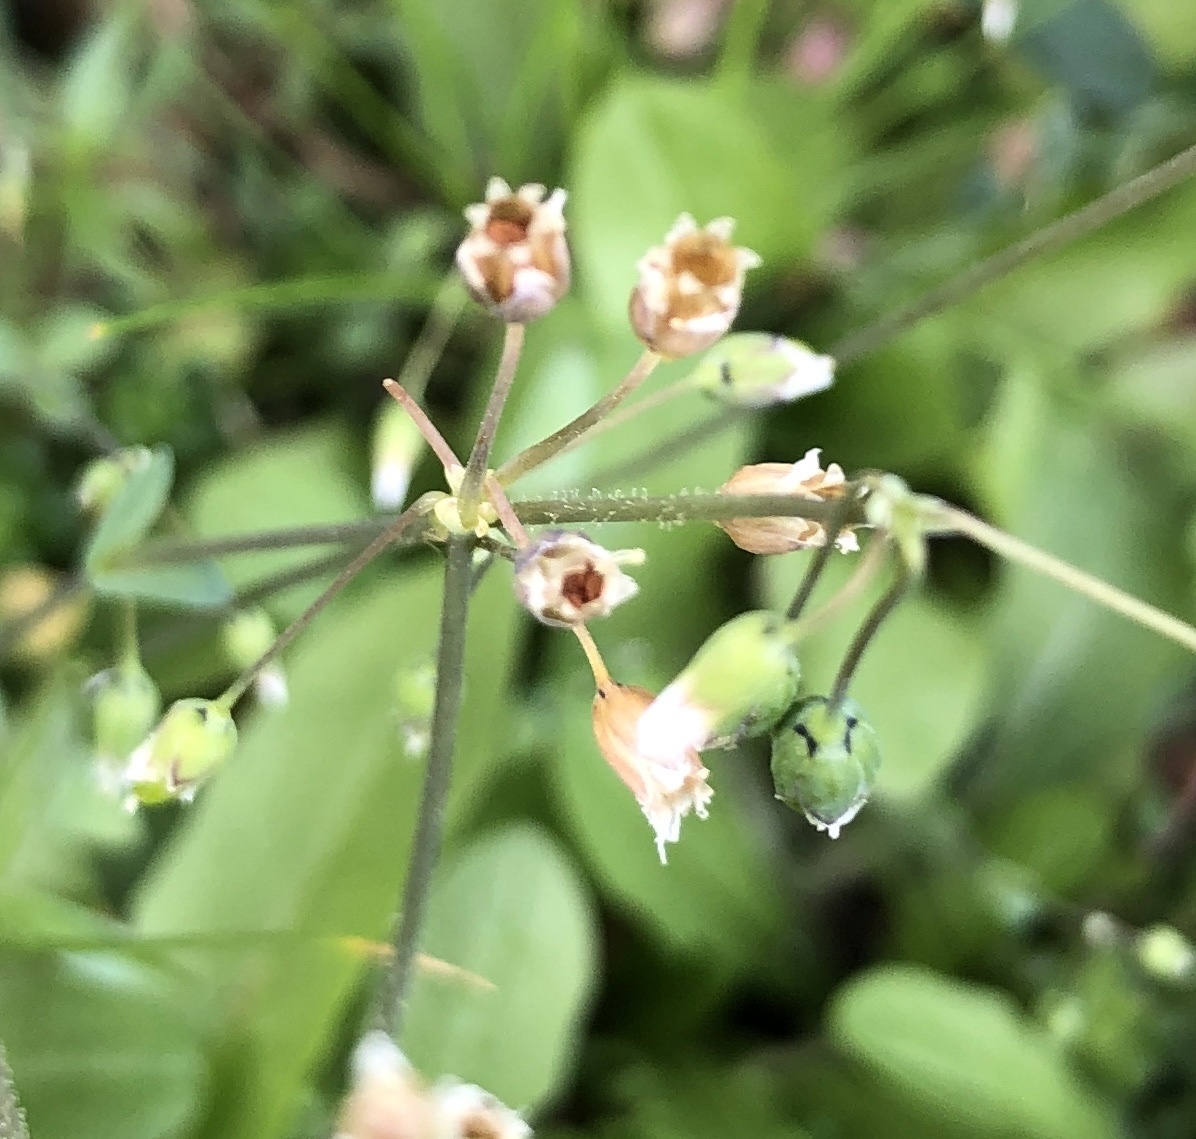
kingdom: Plantae
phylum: Tracheophyta
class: Magnoliopsida
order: Caryophyllales
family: Caryophyllaceae
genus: Holosteum
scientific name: Holosteum umbellatum
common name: Jagged chickweed
